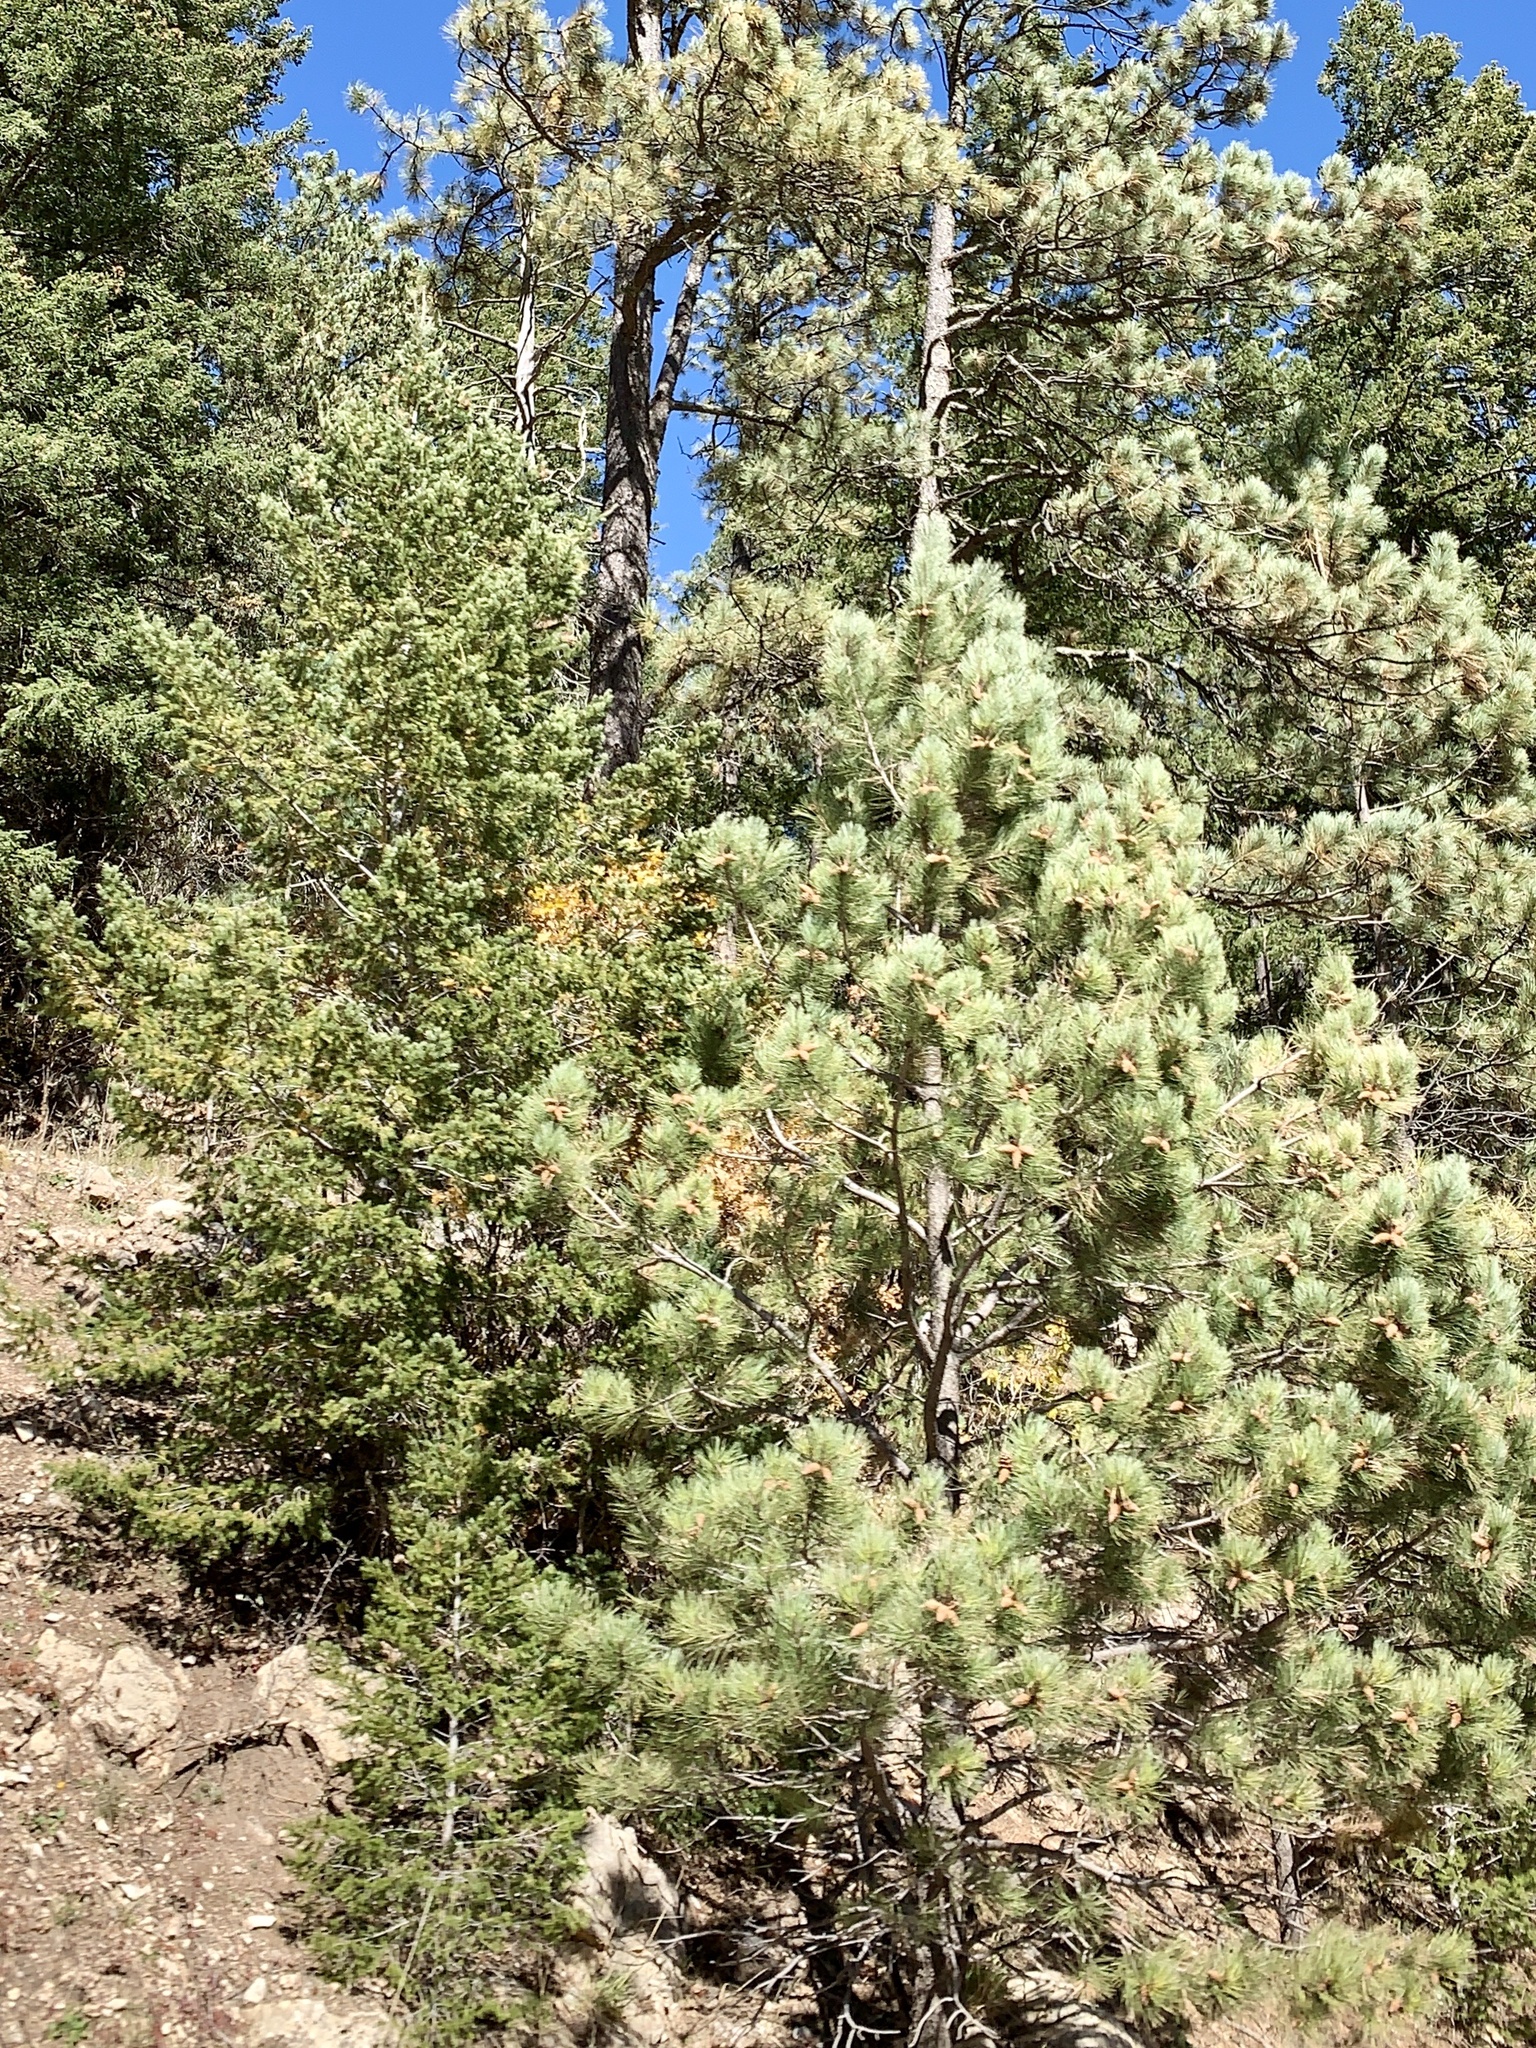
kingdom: Plantae
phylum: Tracheophyta
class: Pinopsida
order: Pinales
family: Pinaceae
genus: Pinus
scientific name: Pinus ponderosa
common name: Western yellow-pine
